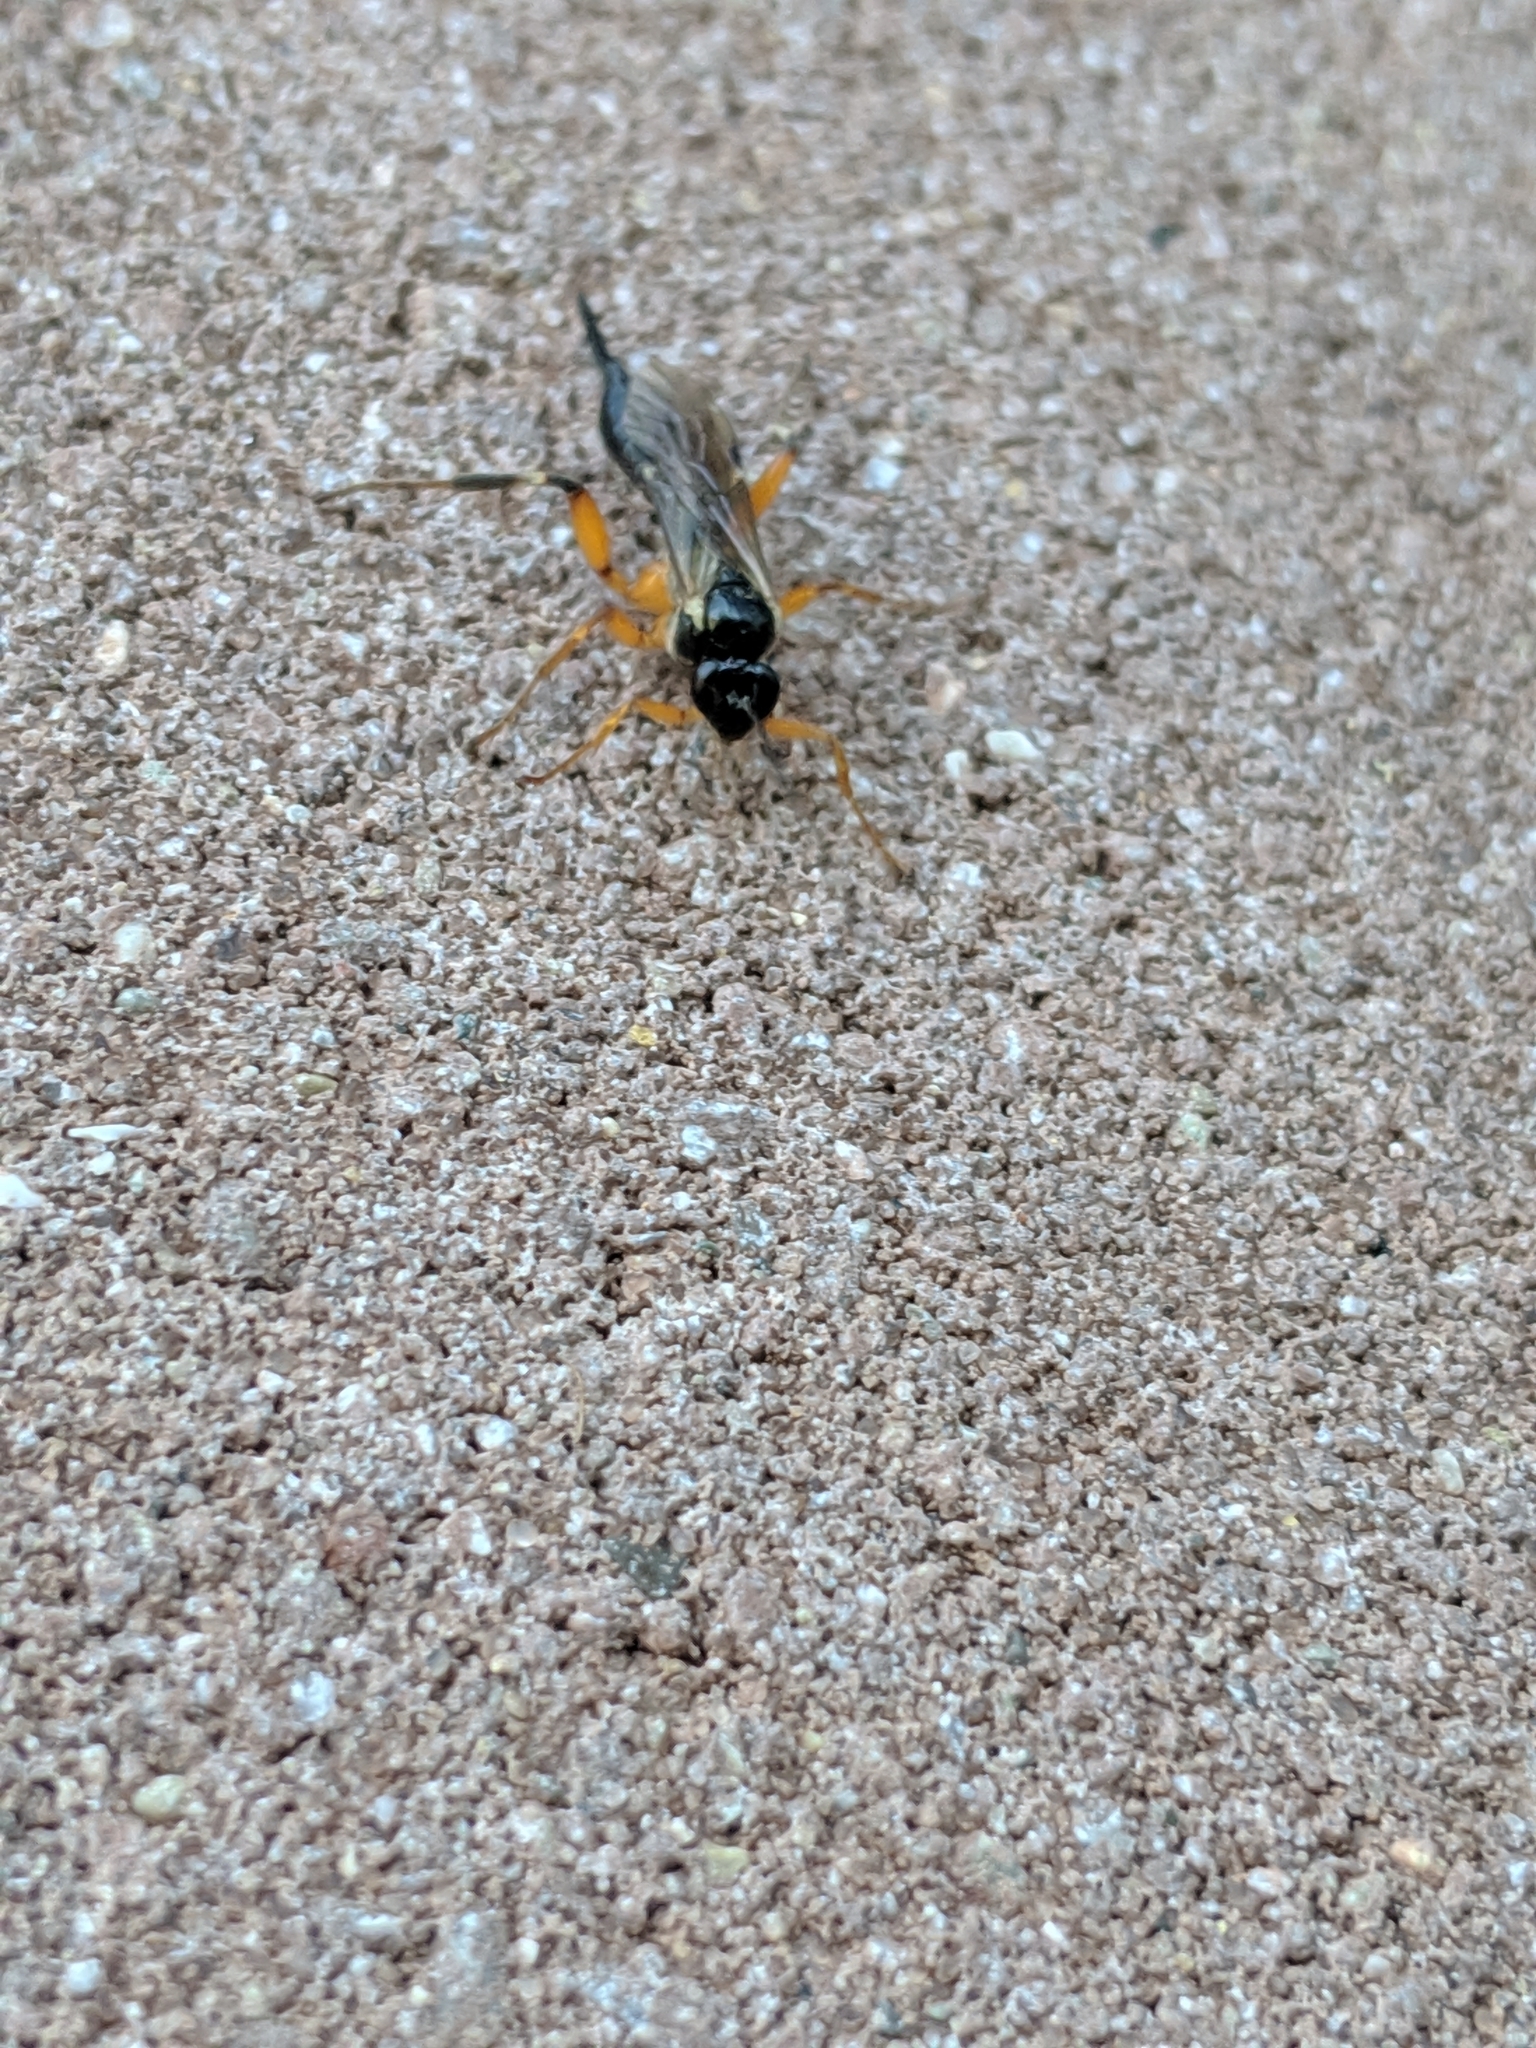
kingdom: Animalia
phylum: Arthropoda
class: Insecta
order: Hymenoptera
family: Ichneumonidae
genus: Pimpla
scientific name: Pimpla
